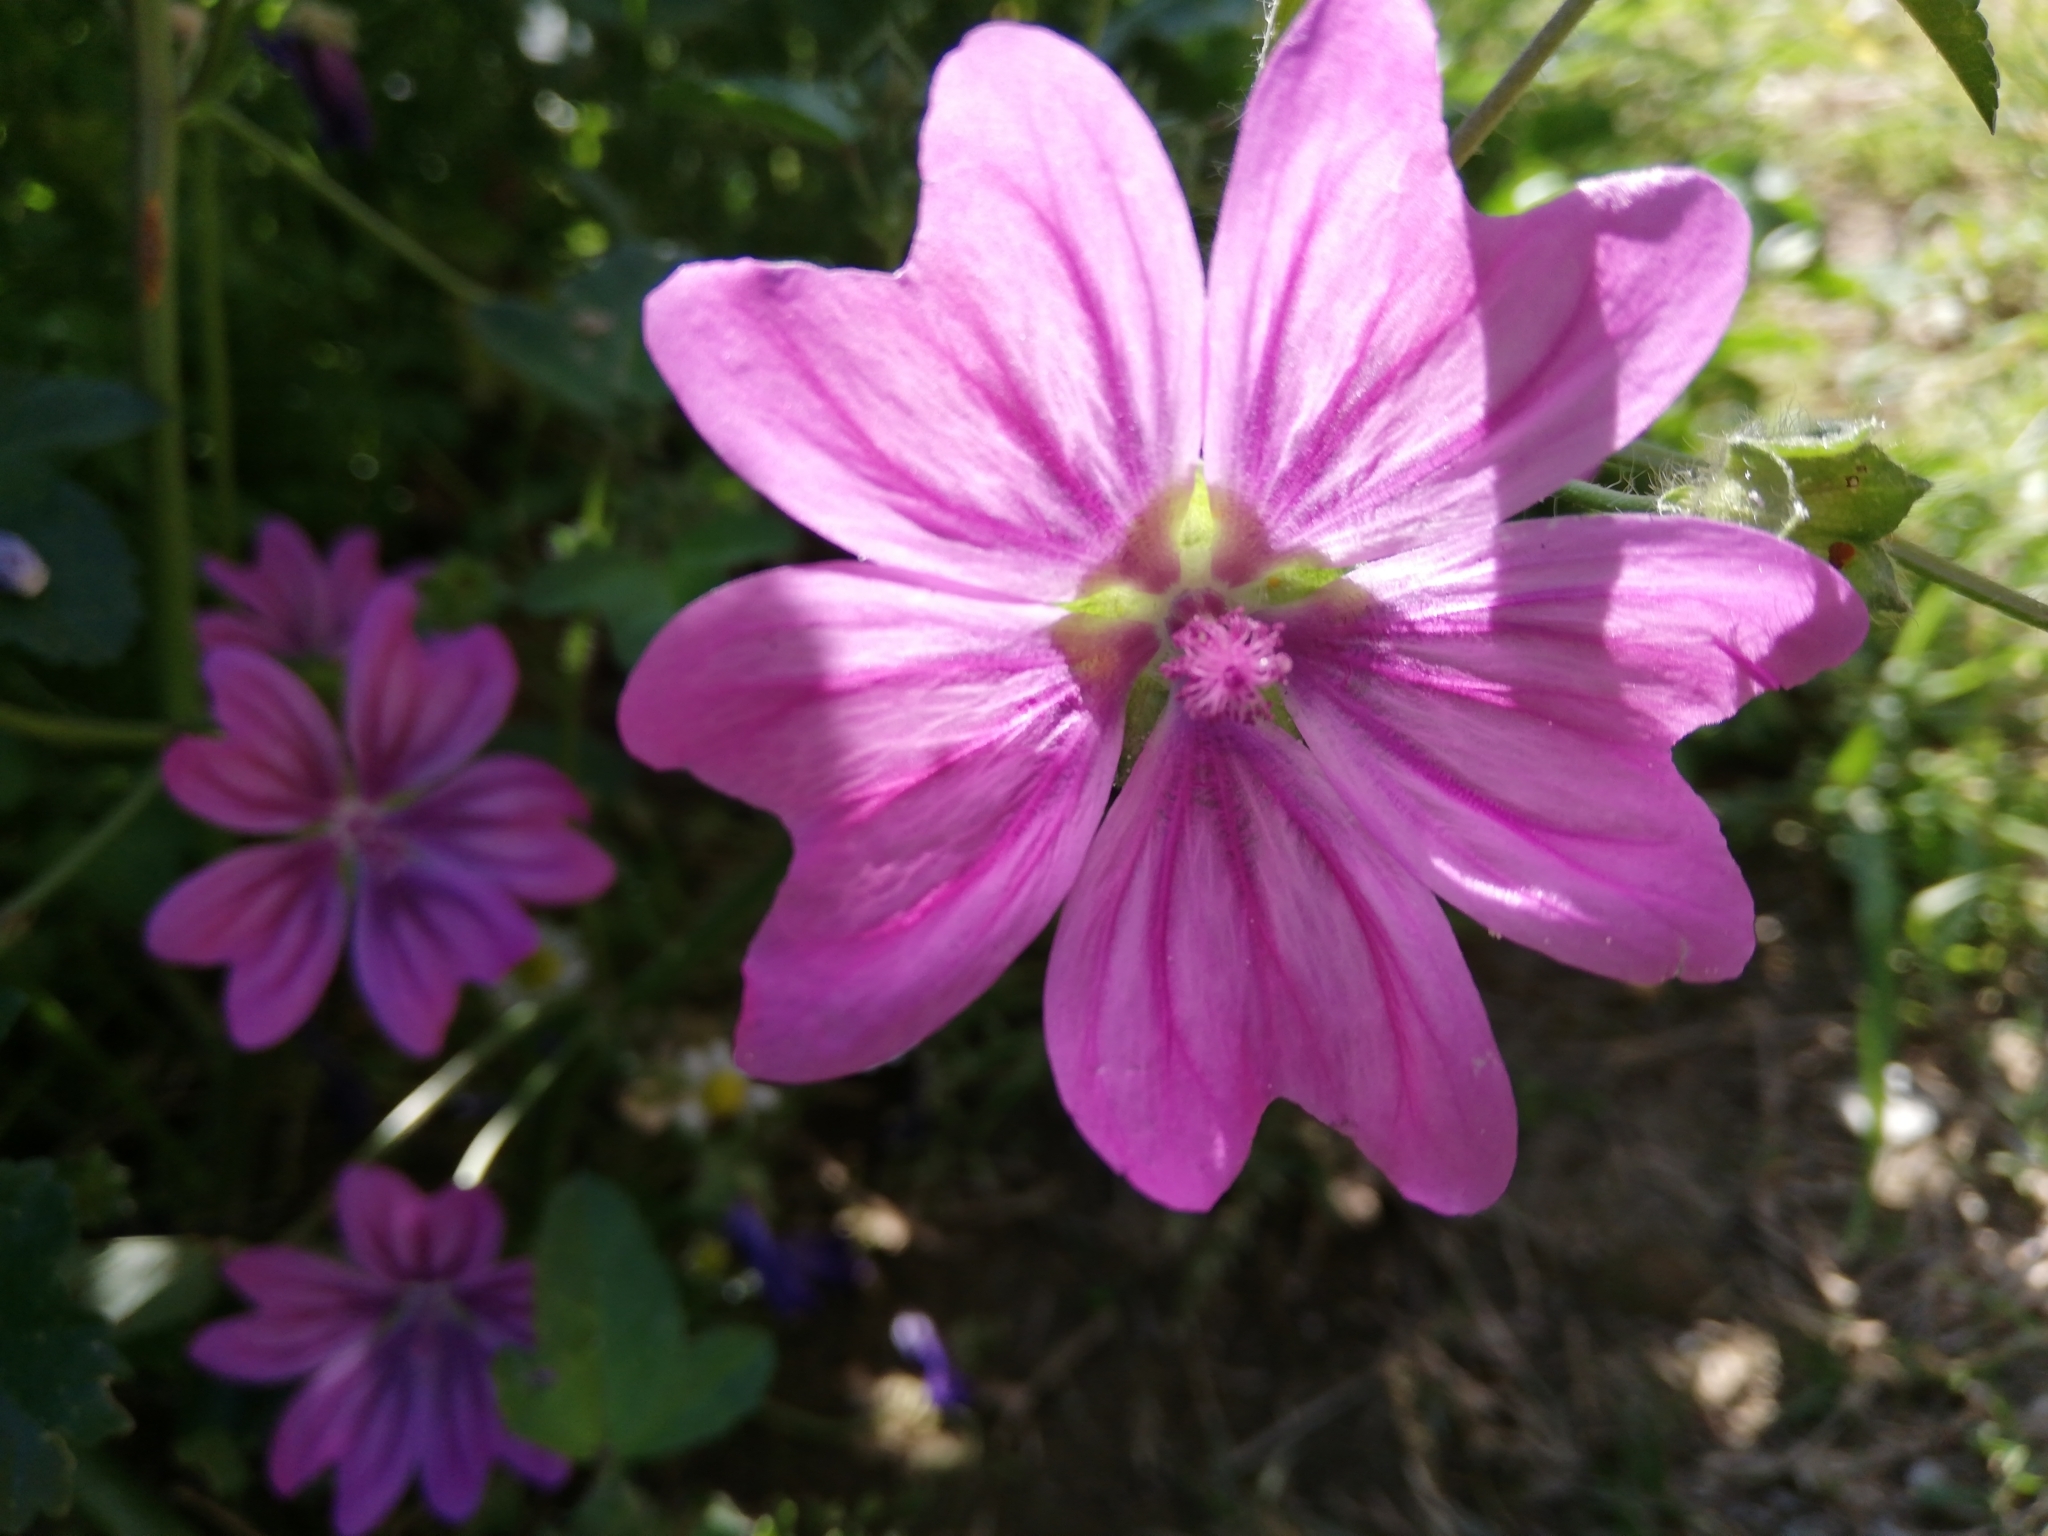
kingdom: Plantae
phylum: Tracheophyta
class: Magnoliopsida
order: Malvales
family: Malvaceae
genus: Malva
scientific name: Malva sylvestris
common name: Common mallow
